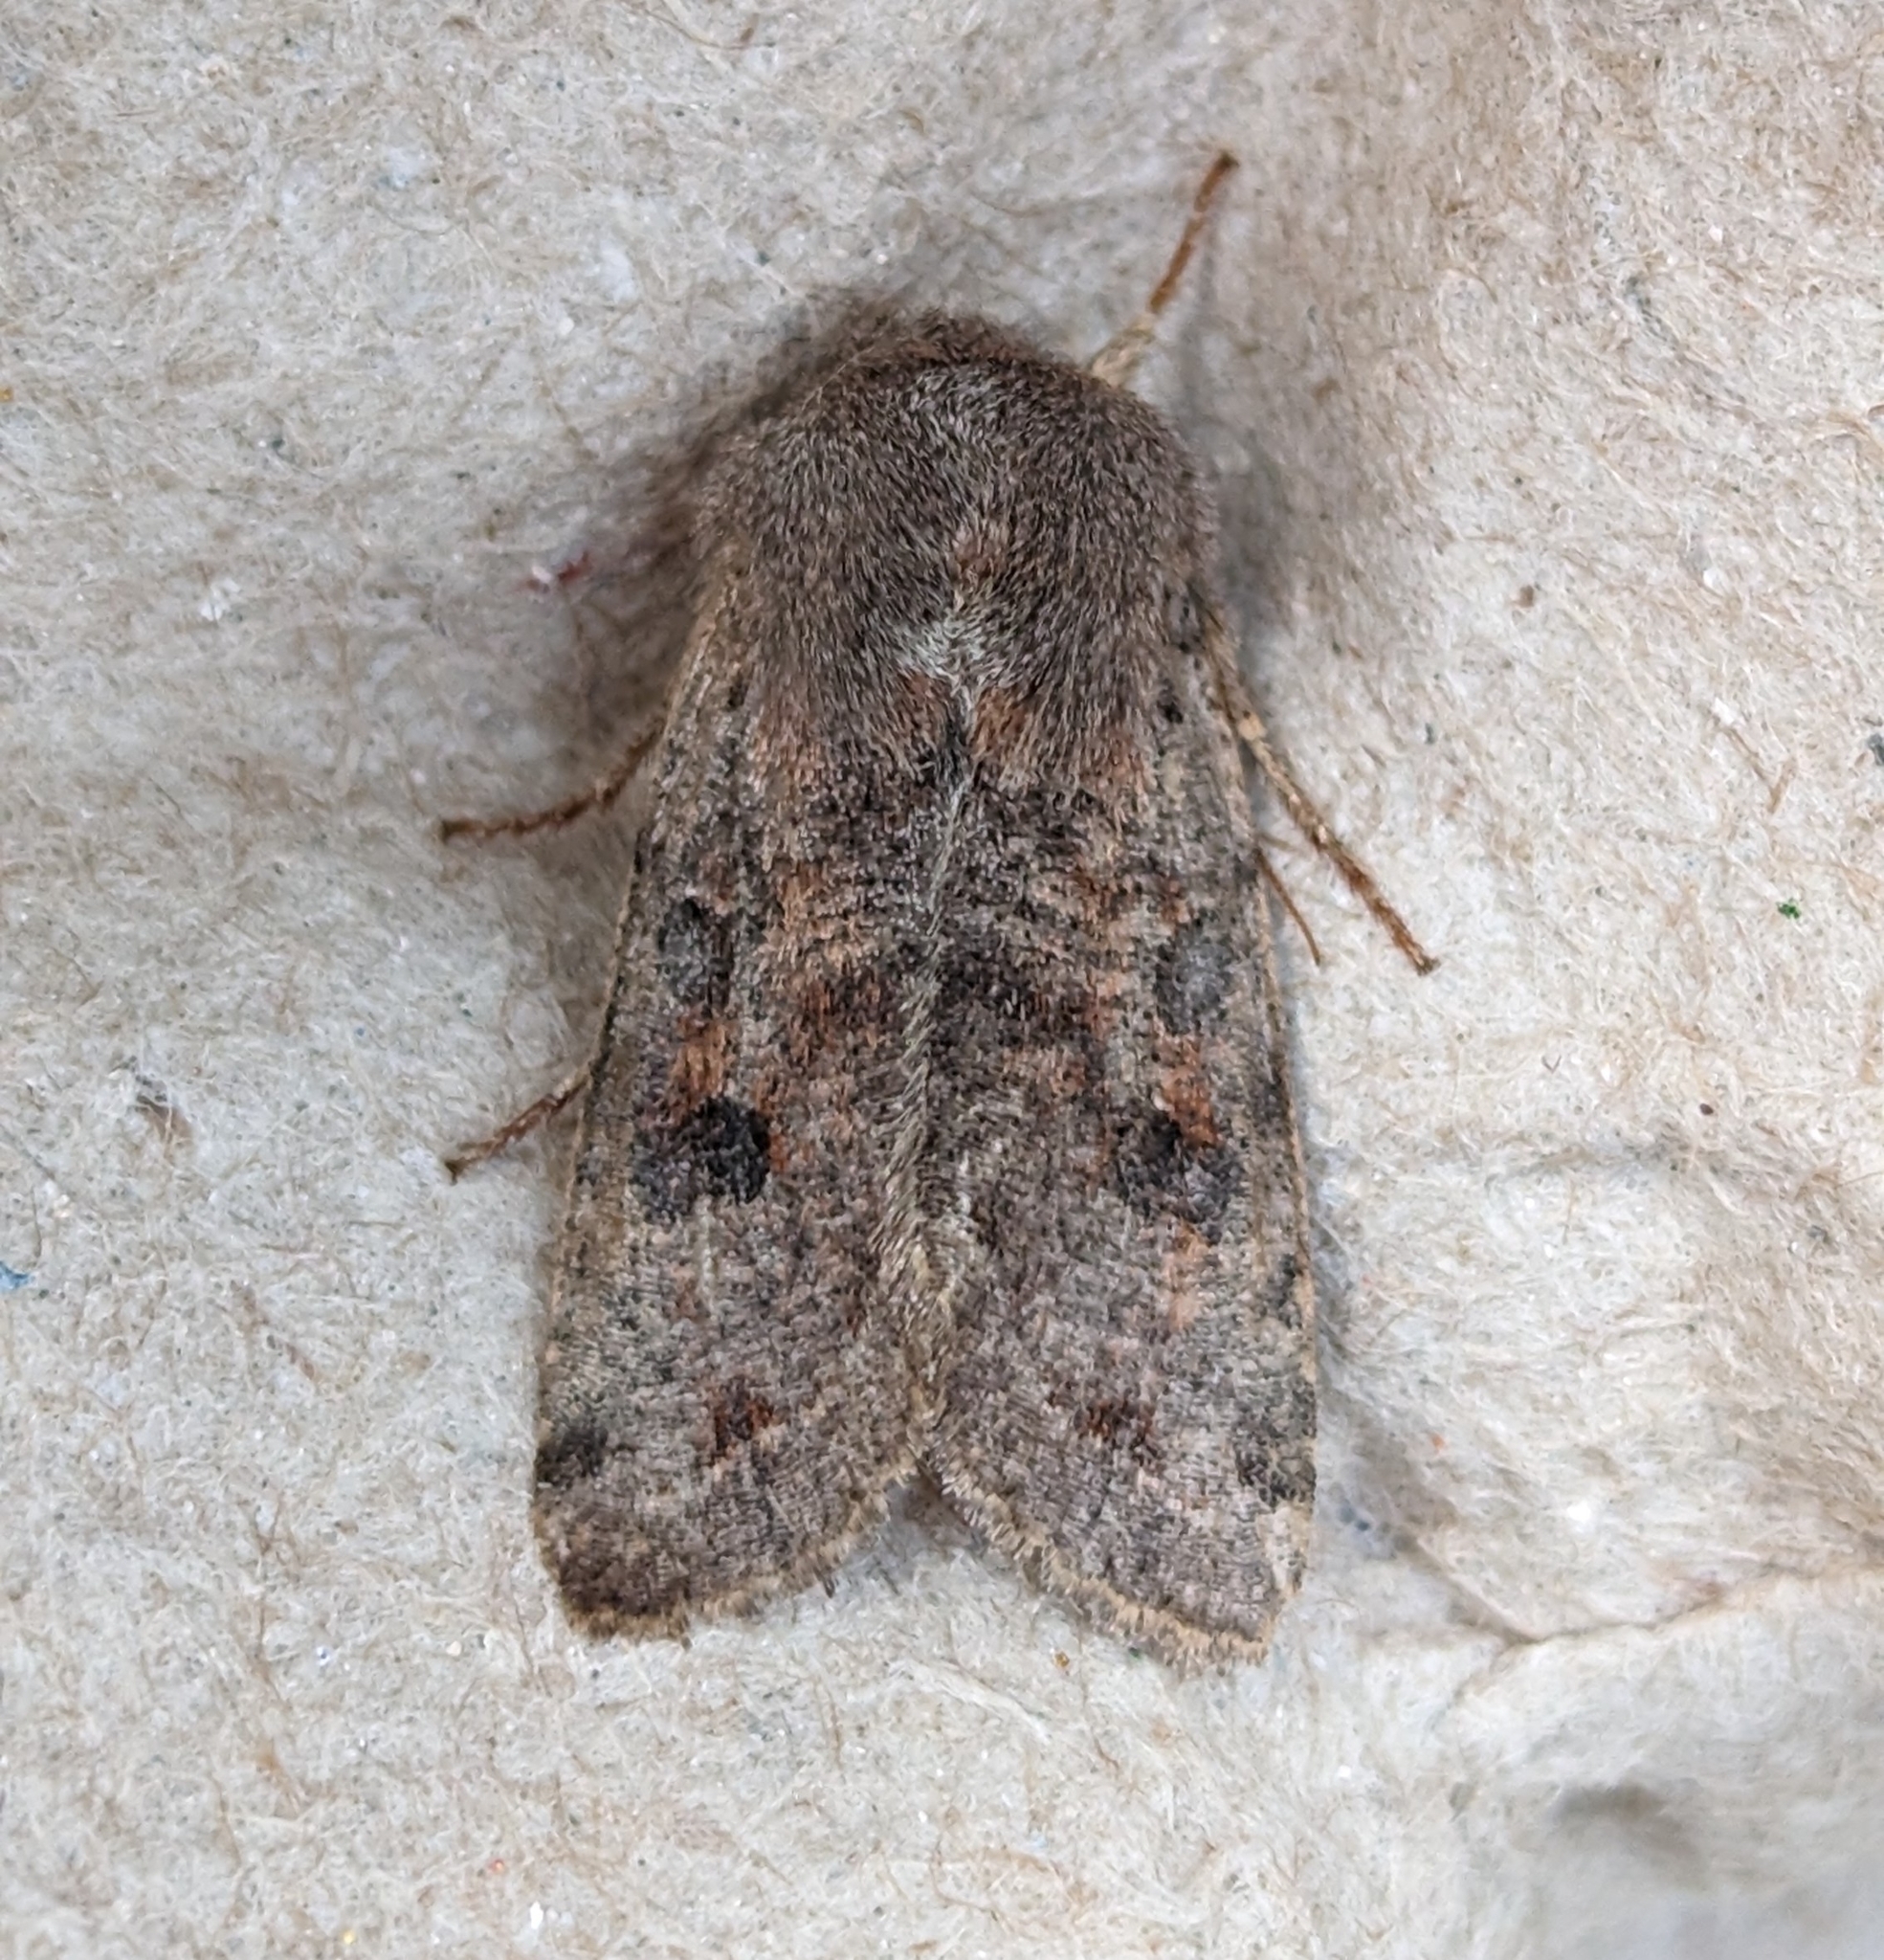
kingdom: Animalia
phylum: Arthropoda
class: Insecta
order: Lepidoptera
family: Noctuidae
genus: Orthosia
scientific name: Orthosia hibisci
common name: Green fruitworm
